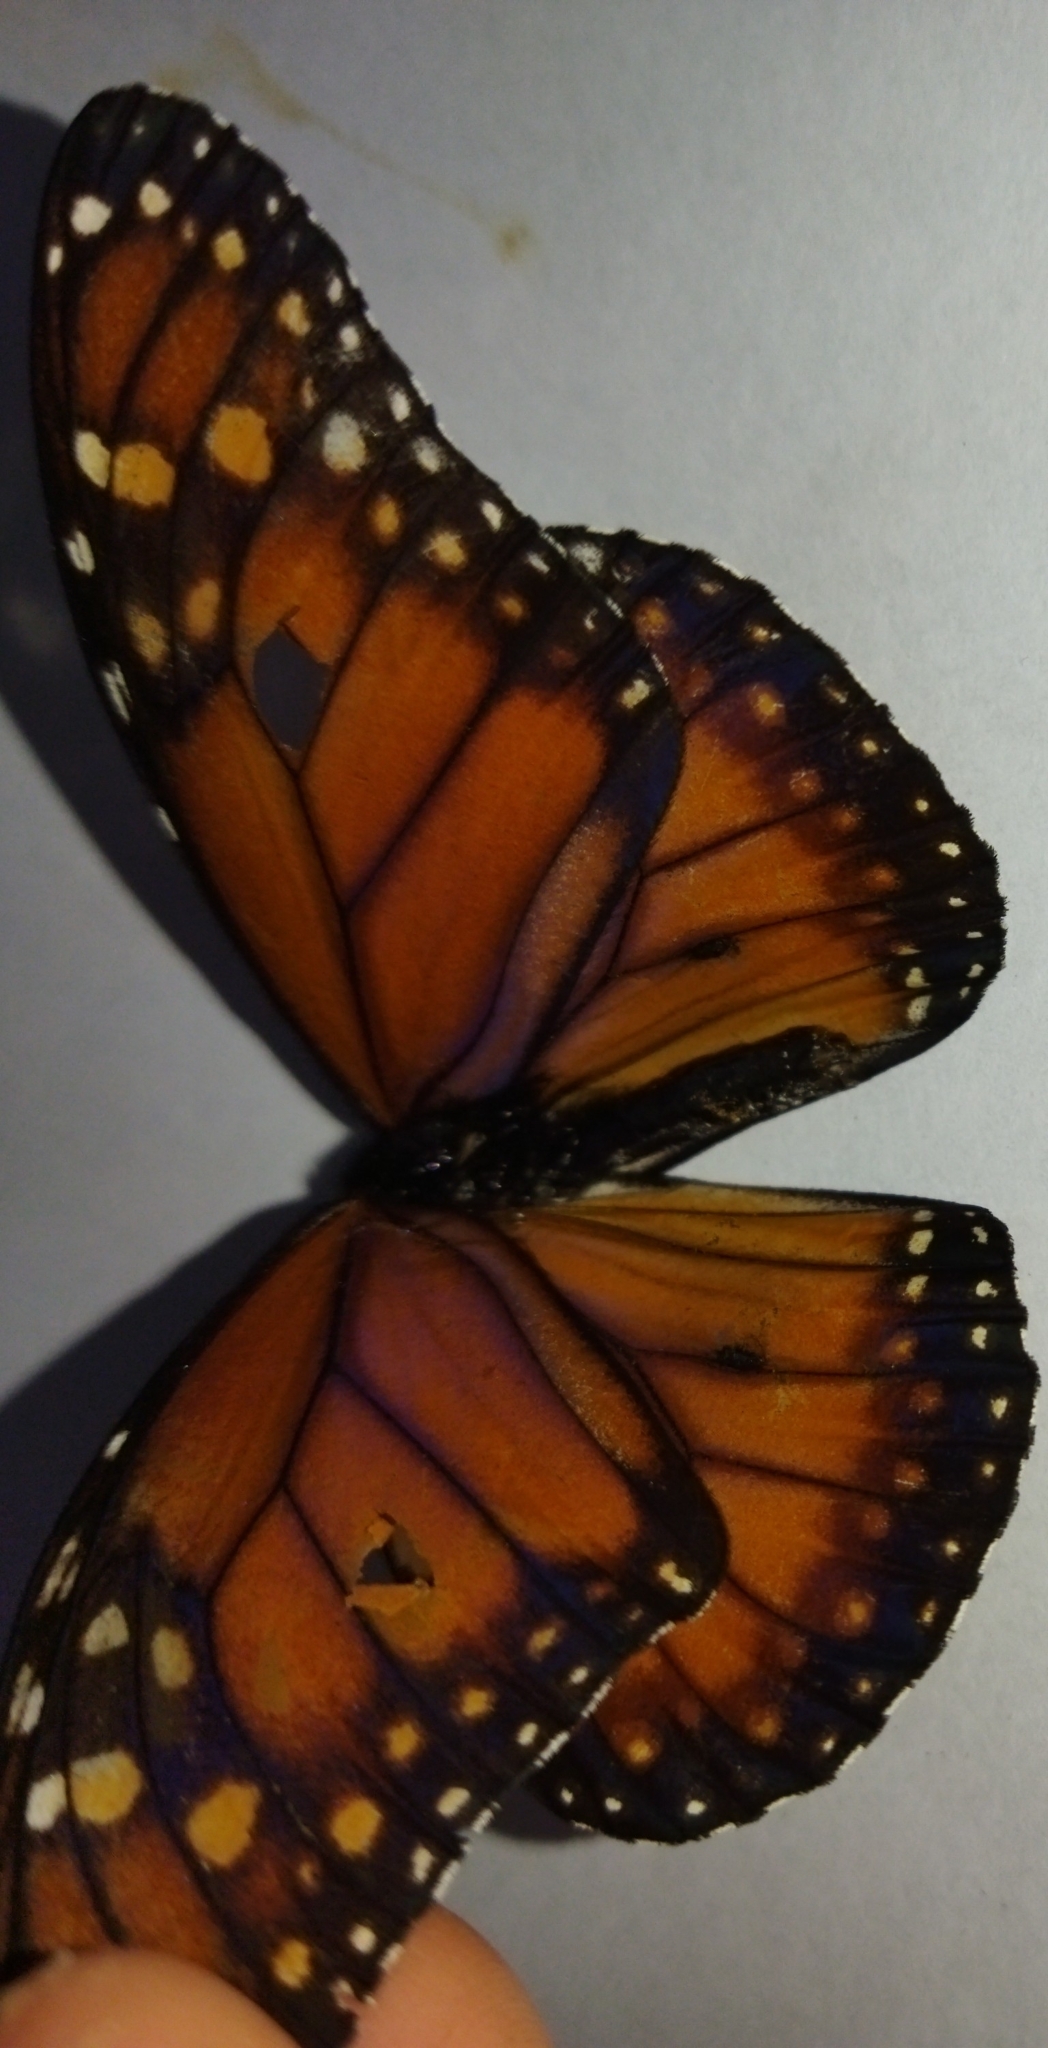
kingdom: Animalia
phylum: Arthropoda
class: Insecta
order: Lepidoptera
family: Nymphalidae
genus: Danaus
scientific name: Danaus erippus
